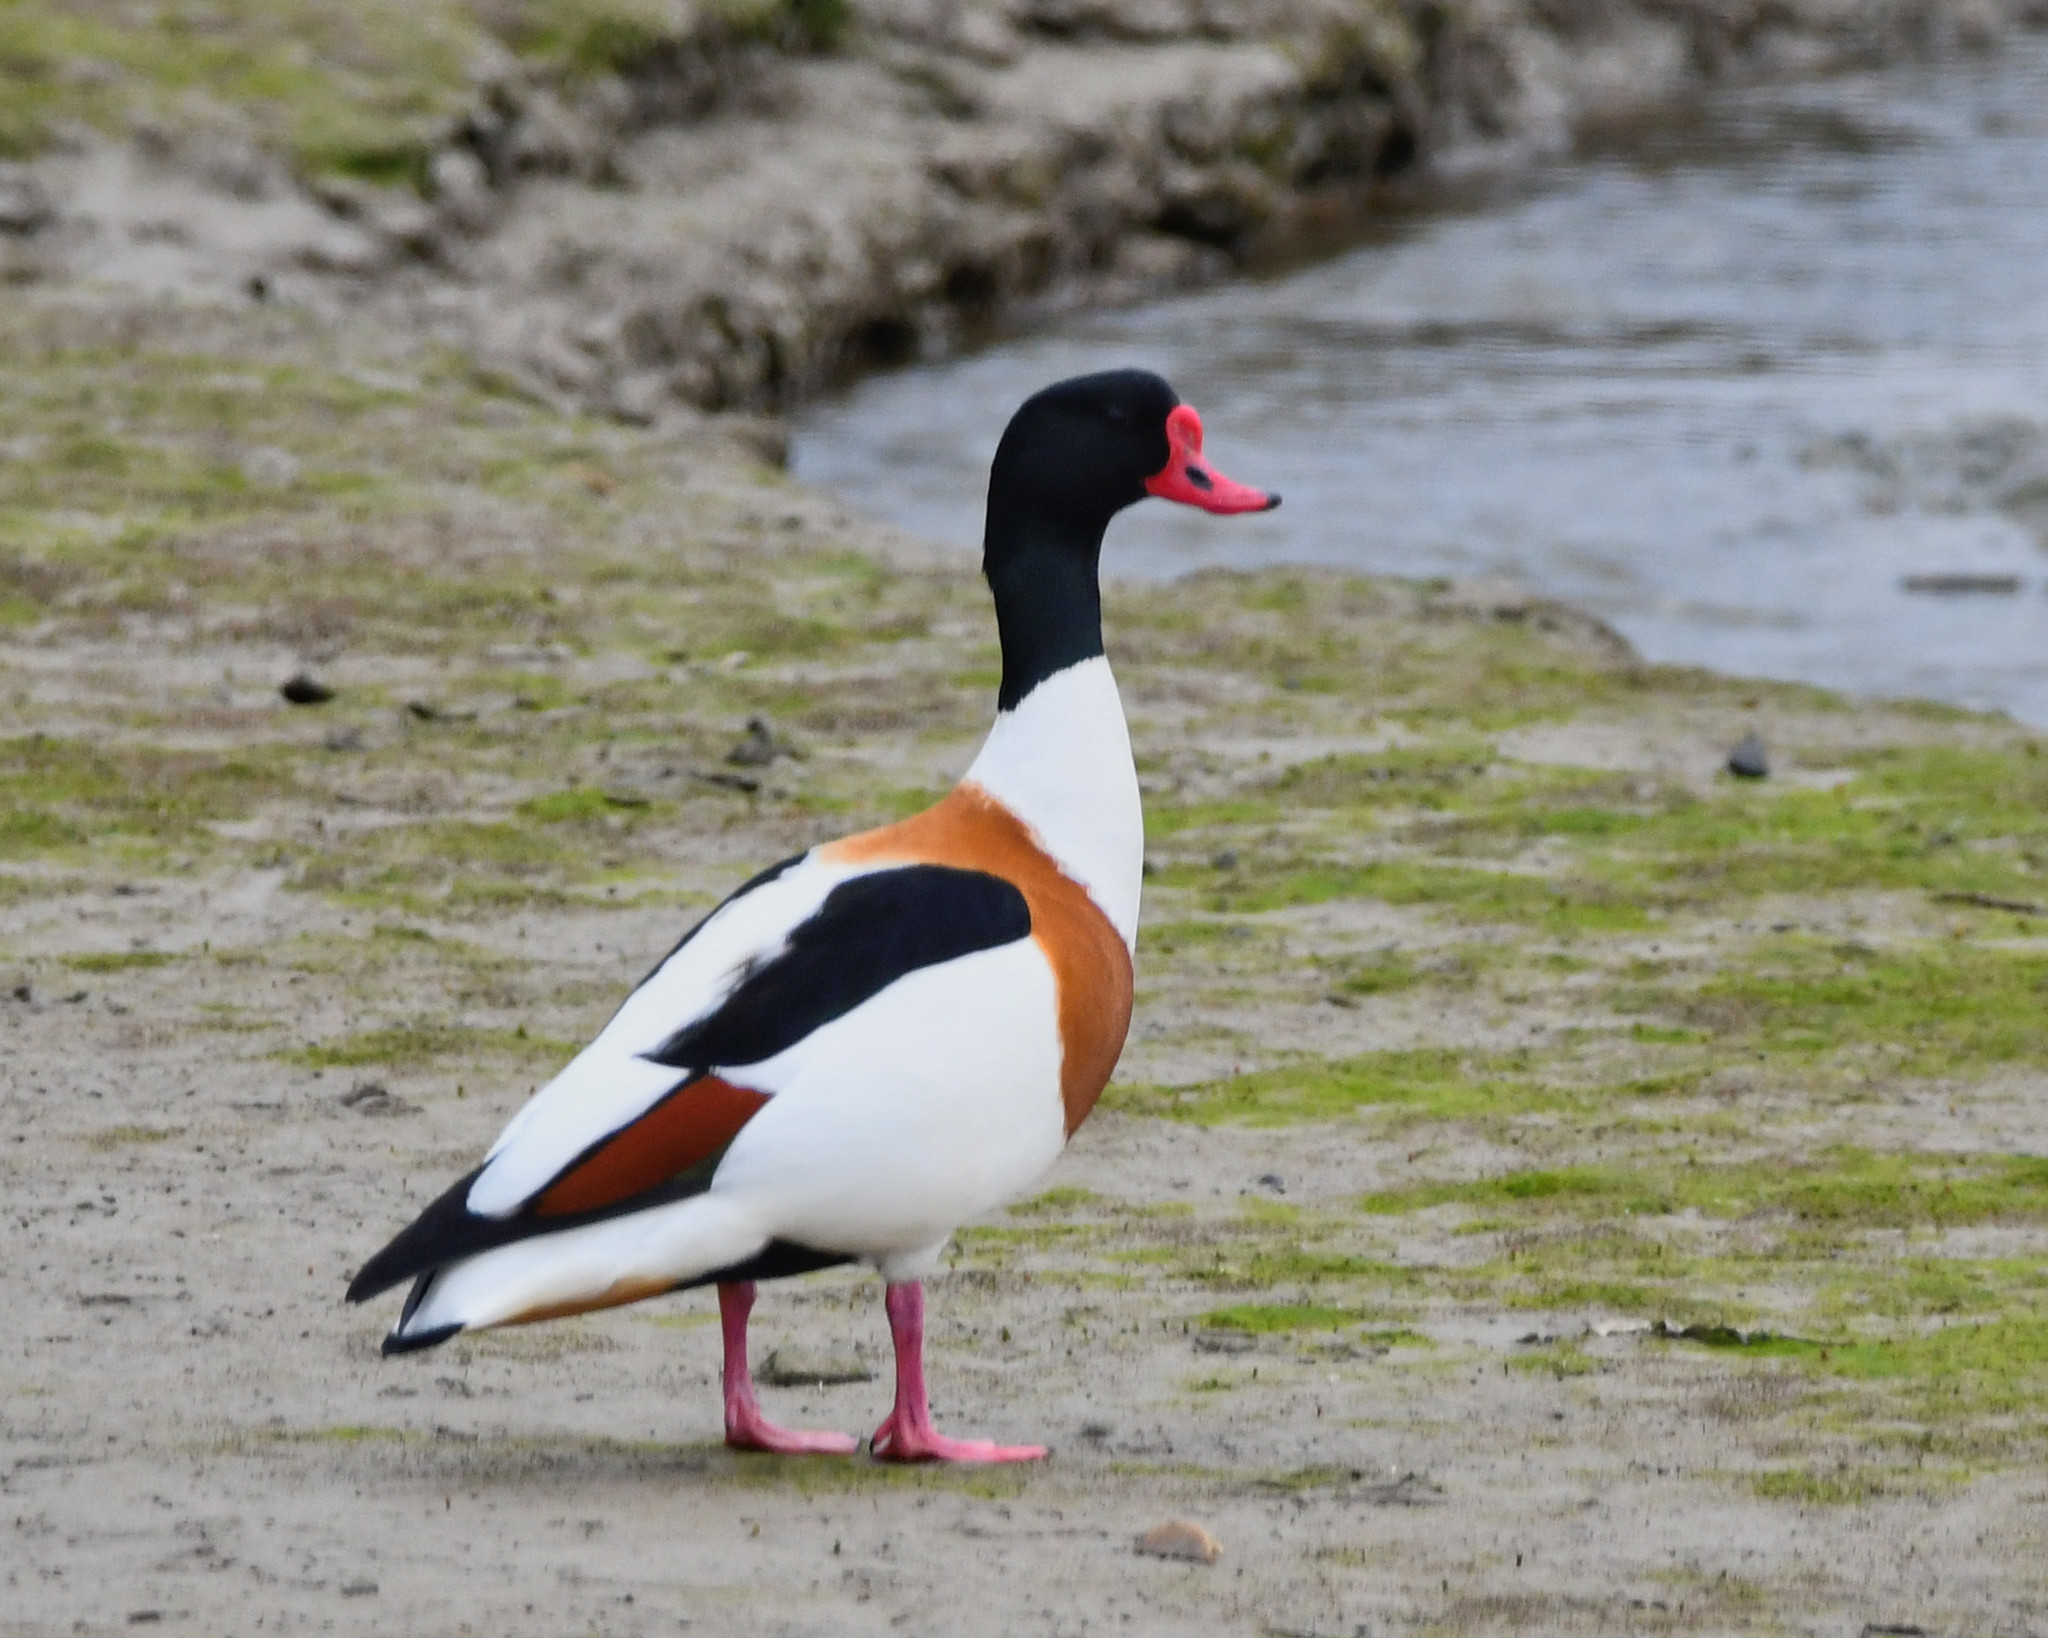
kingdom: Animalia
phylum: Chordata
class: Aves
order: Anseriformes
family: Anatidae
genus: Tadorna
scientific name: Tadorna tadorna
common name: Common shelduck
